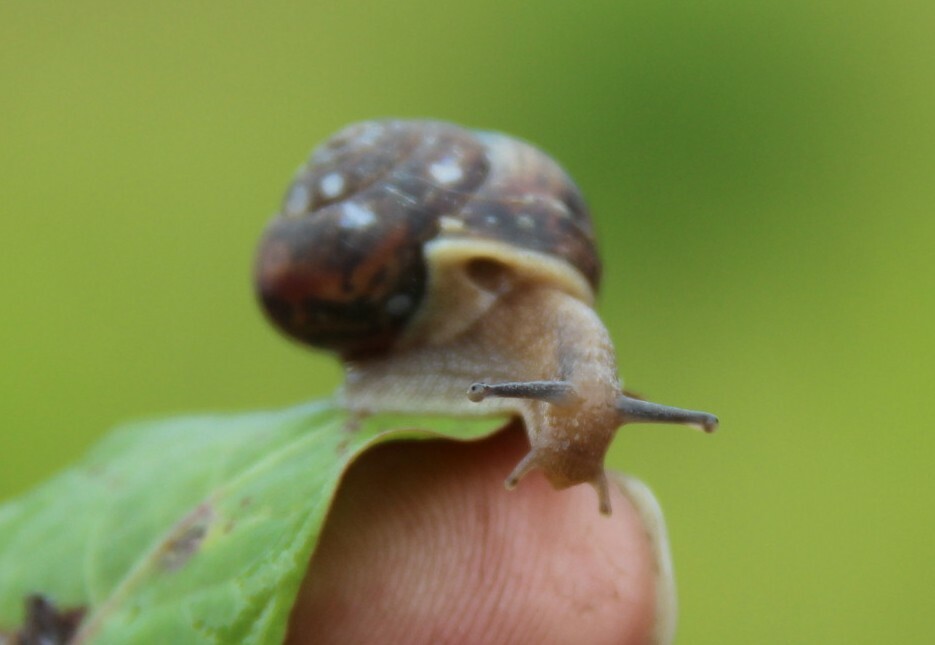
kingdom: Animalia
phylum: Mollusca
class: Gastropoda
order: Stylommatophora
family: Camaenidae
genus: Fruticicola
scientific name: Fruticicola fruticum
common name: Bush snail
